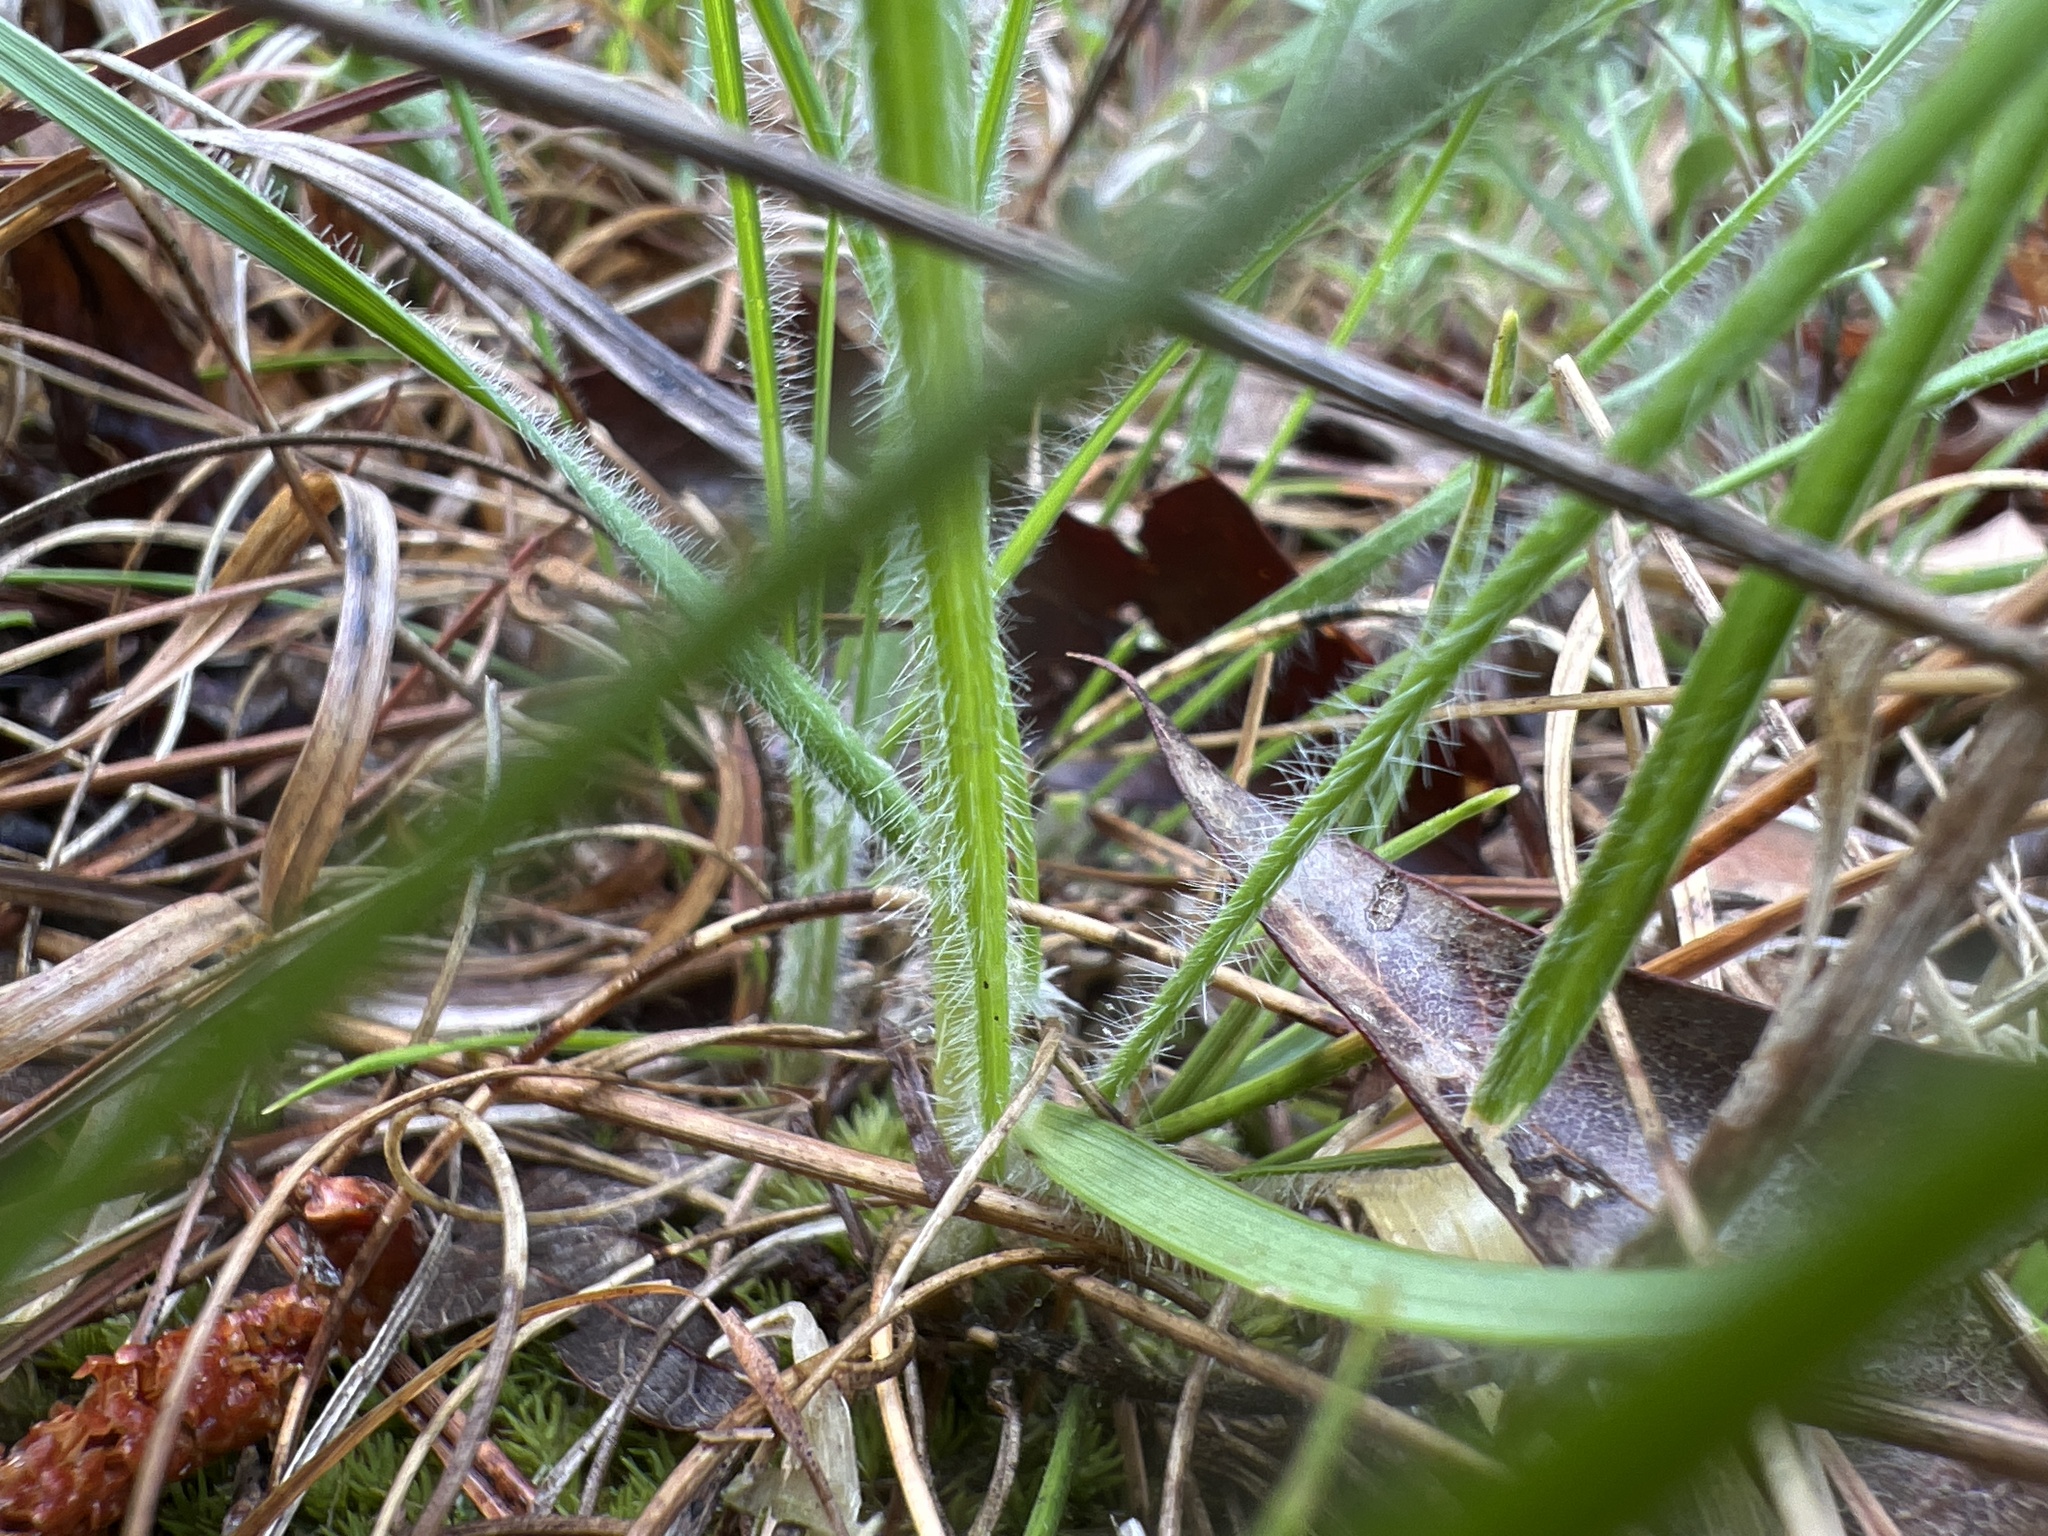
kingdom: Plantae
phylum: Tracheophyta
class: Liliopsida
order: Poales
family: Poaceae
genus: Danthonia
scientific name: Danthonia sericea
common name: Downy danthonia
